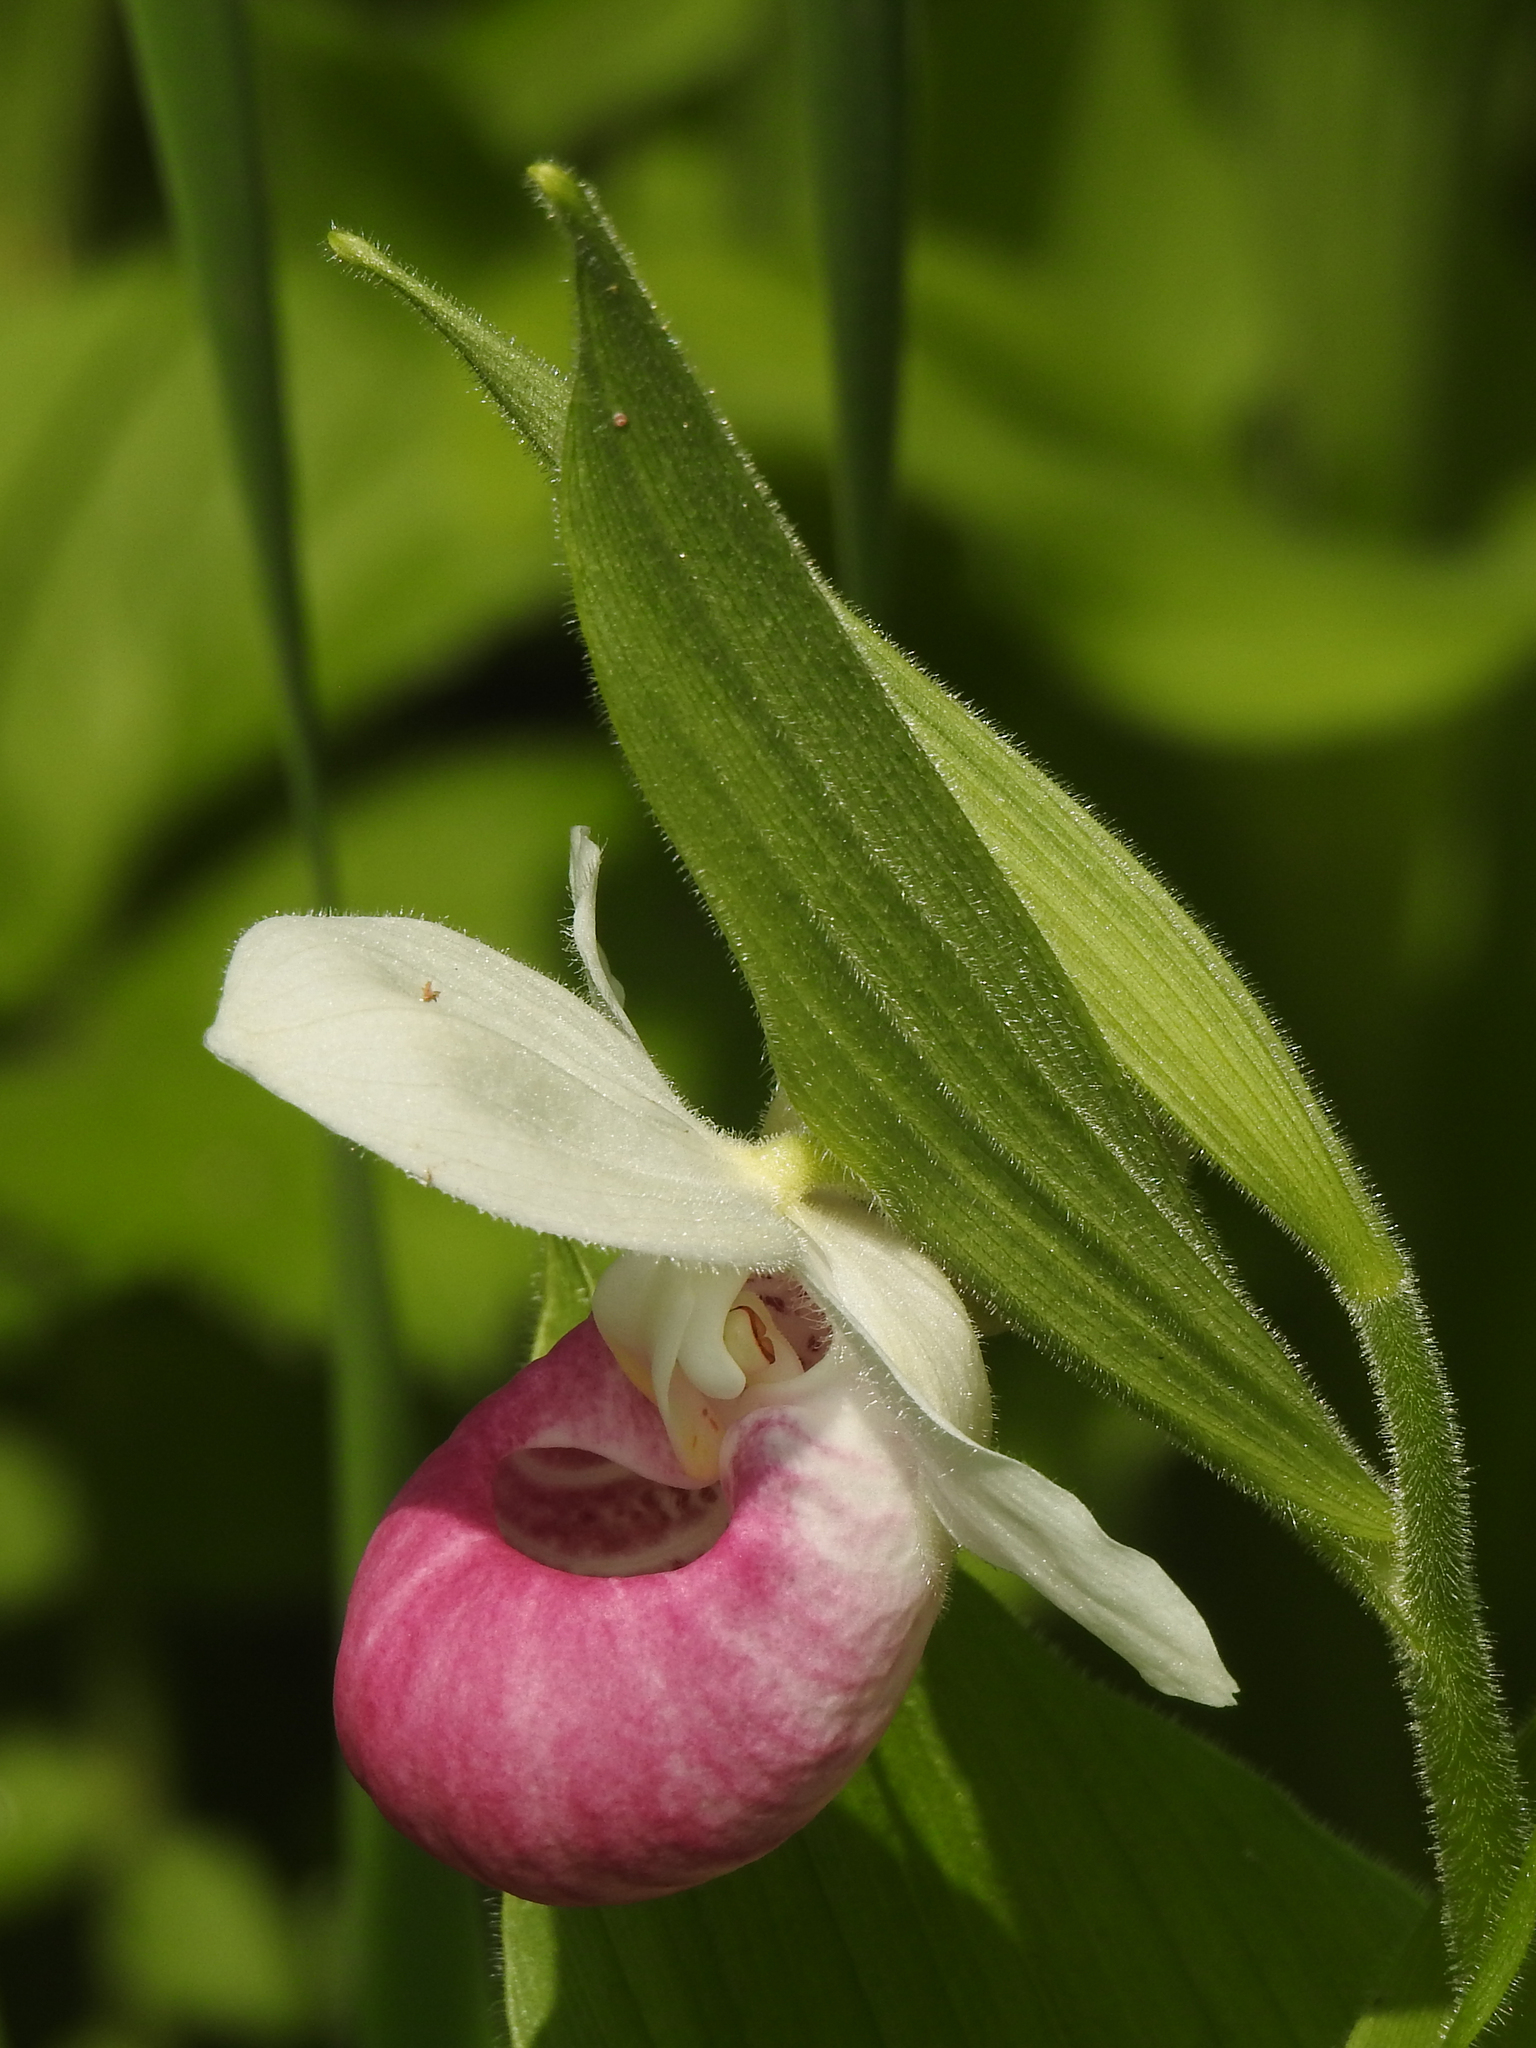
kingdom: Plantae
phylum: Tracheophyta
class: Liliopsida
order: Asparagales
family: Orchidaceae
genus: Cypripedium
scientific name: Cypripedium reginae
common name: Queen lady's-slipper
